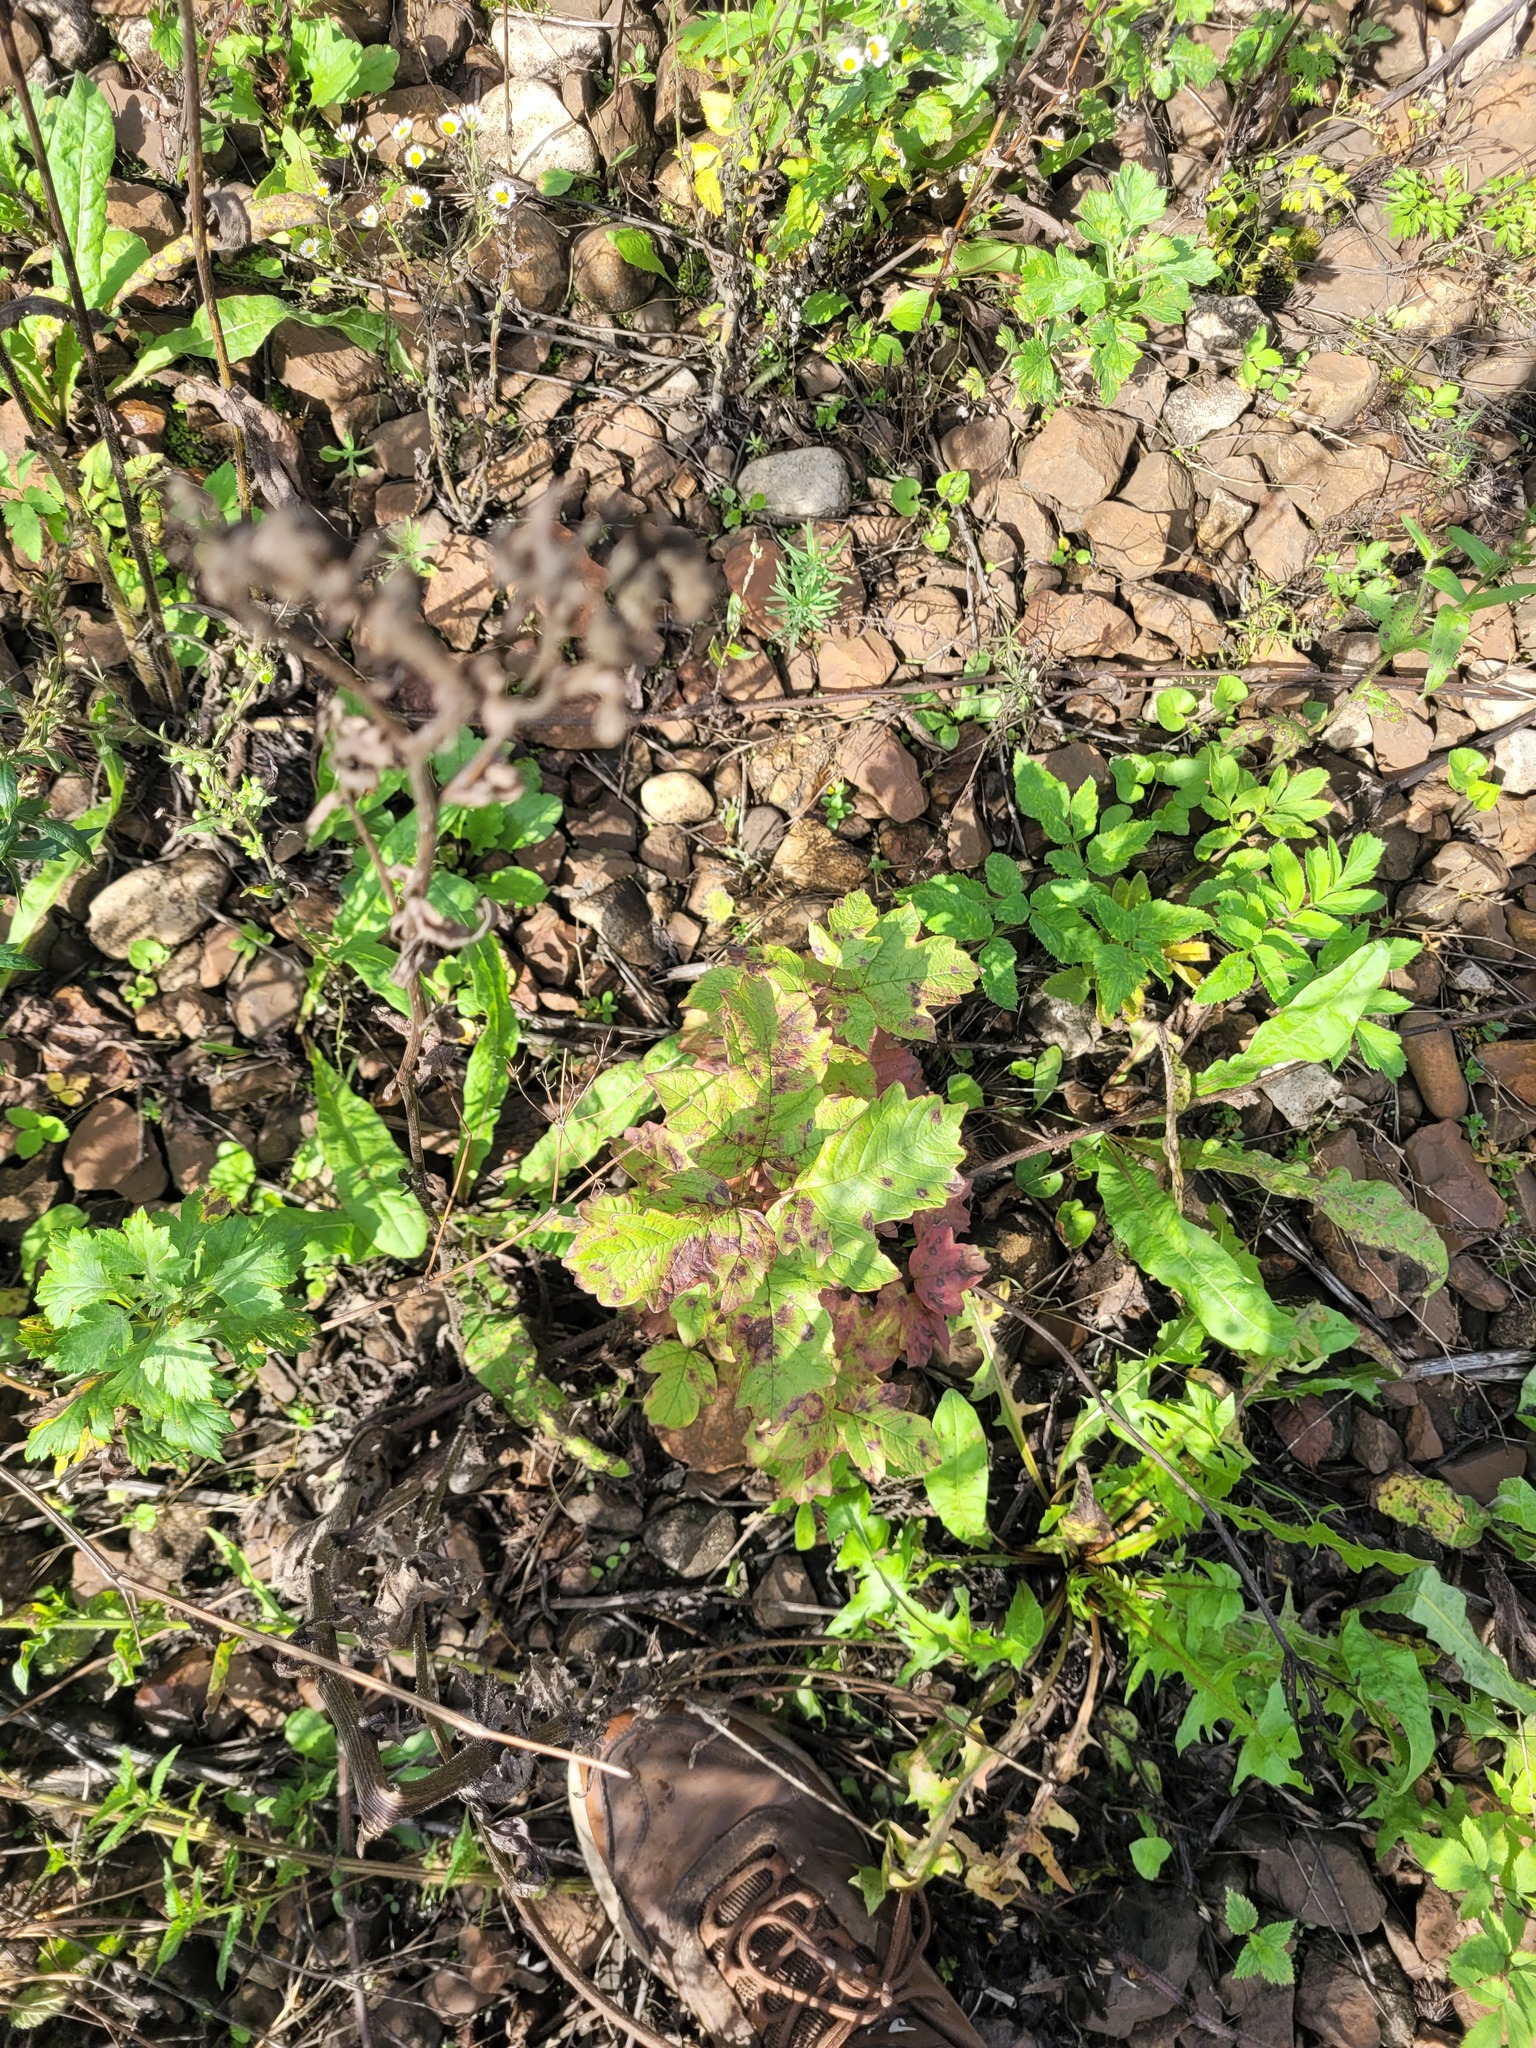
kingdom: Plantae
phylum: Tracheophyta
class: Magnoliopsida
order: Dipsacales
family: Viburnaceae
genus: Viburnum
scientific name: Viburnum opulus
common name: Guelder-rose
